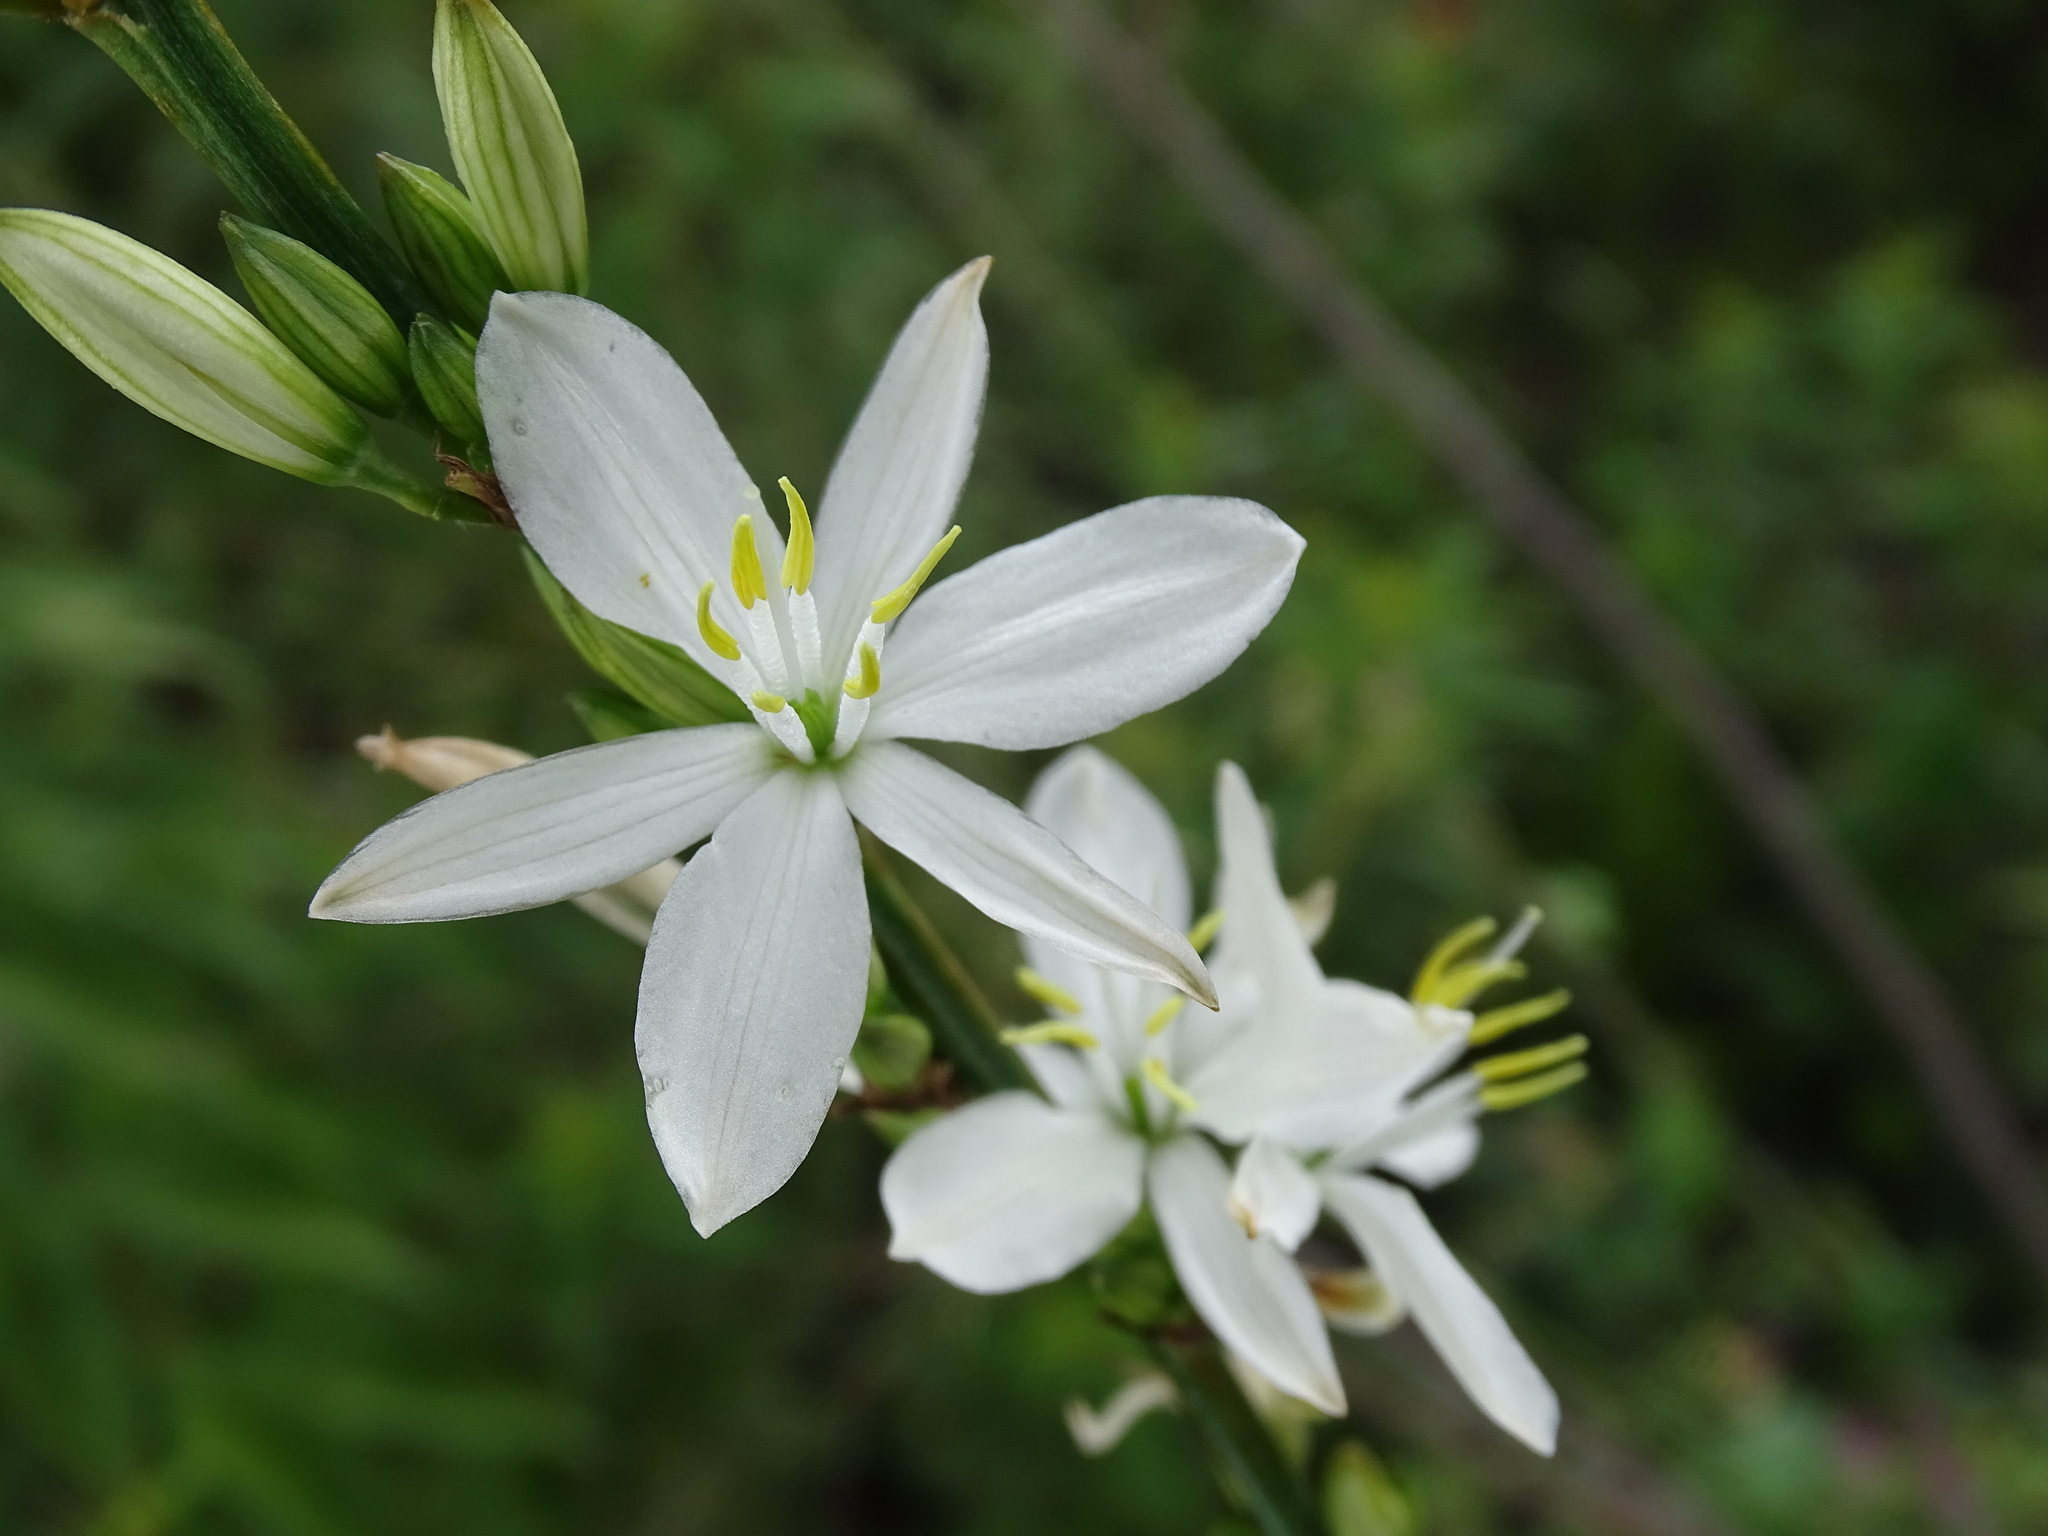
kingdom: Plantae
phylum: Tracheophyta
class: Liliopsida
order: Asparagales
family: Asparagaceae
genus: Echeandia
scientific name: Echeandia cholulensis
